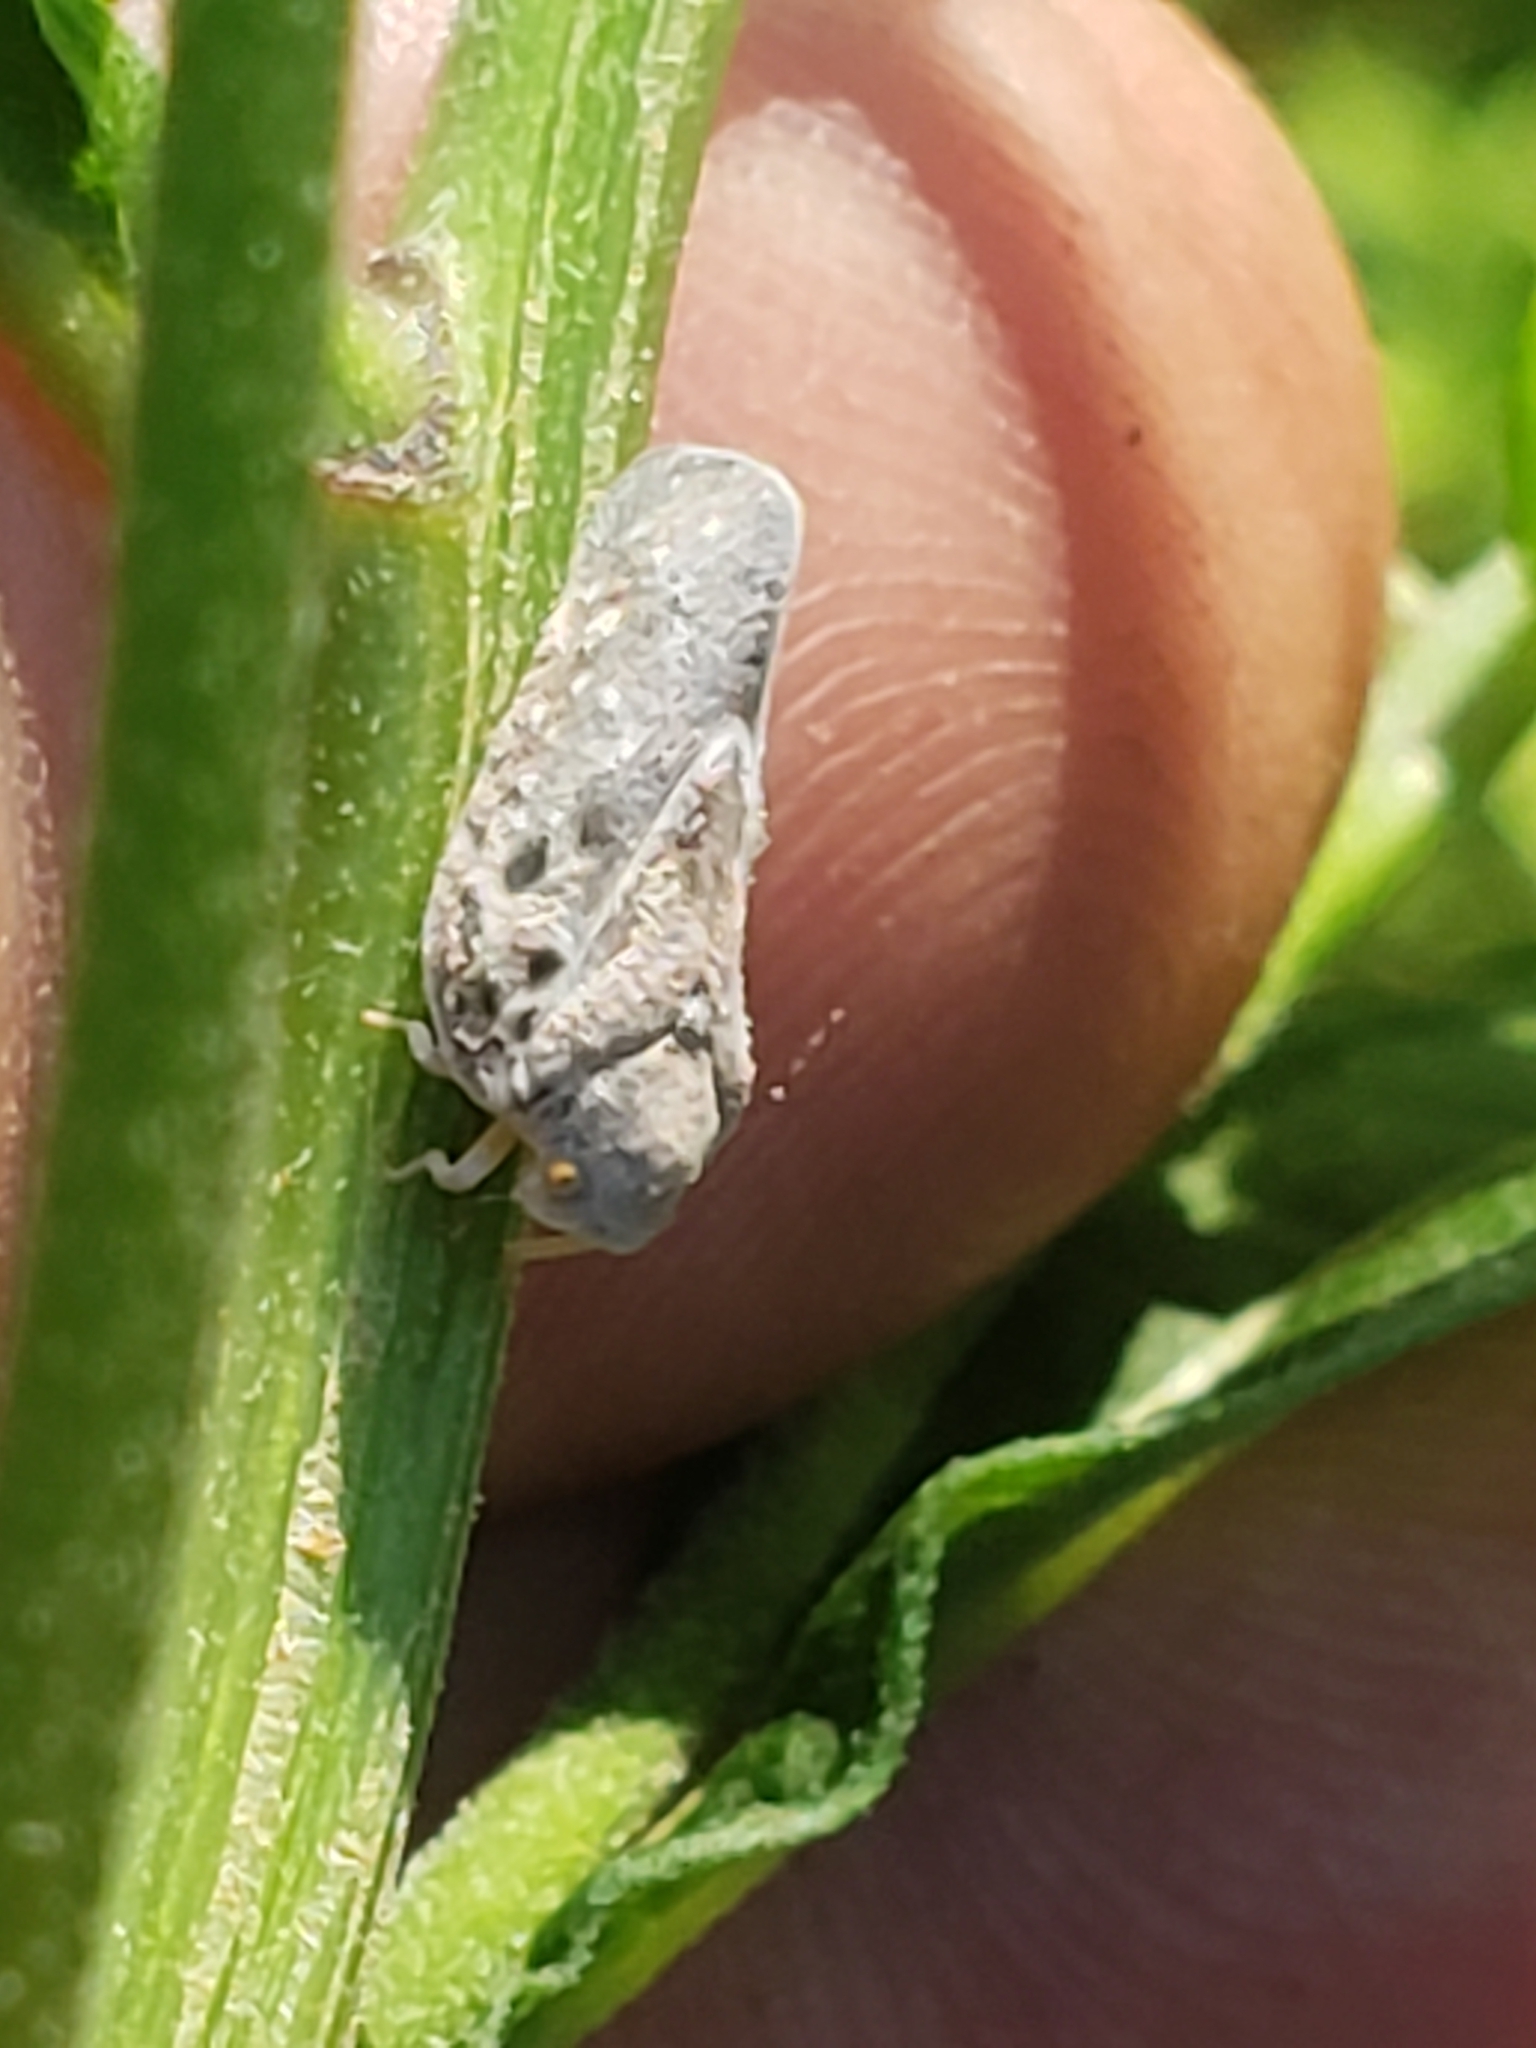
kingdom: Animalia
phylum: Arthropoda
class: Insecta
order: Hemiptera
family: Flatidae
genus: Metcalfa
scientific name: Metcalfa pruinosa
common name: Citrus flatid planthopper
